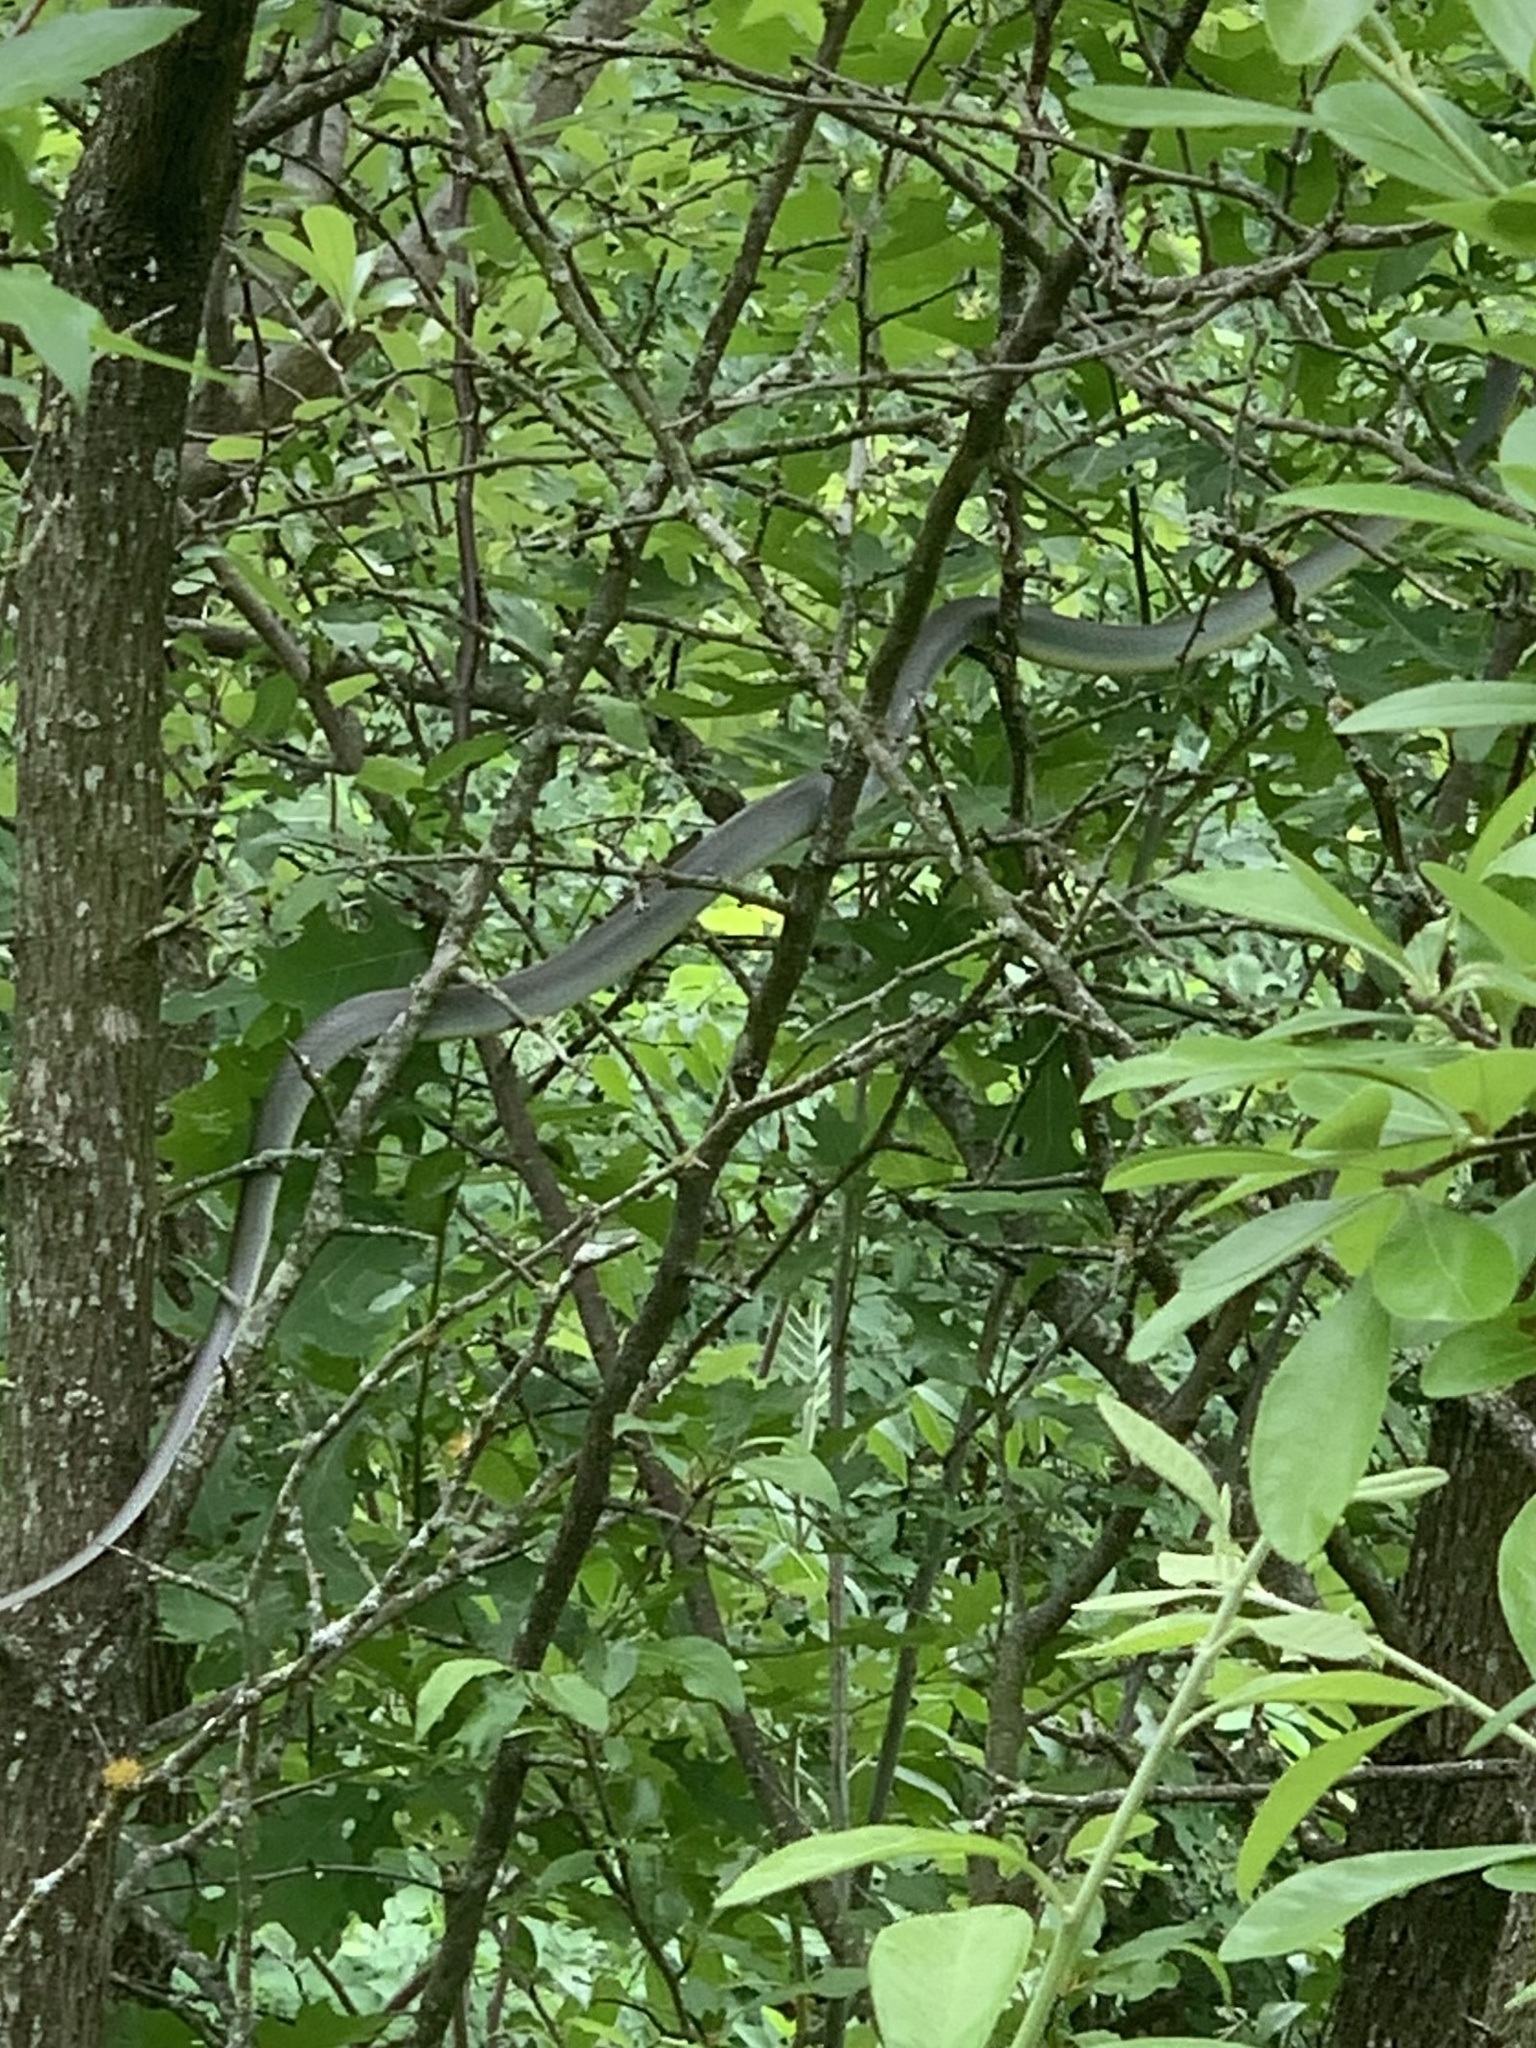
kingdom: Animalia
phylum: Chordata
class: Squamata
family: Colubridae
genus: Coluber
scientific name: Coluber constrictor
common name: Eastern racer
